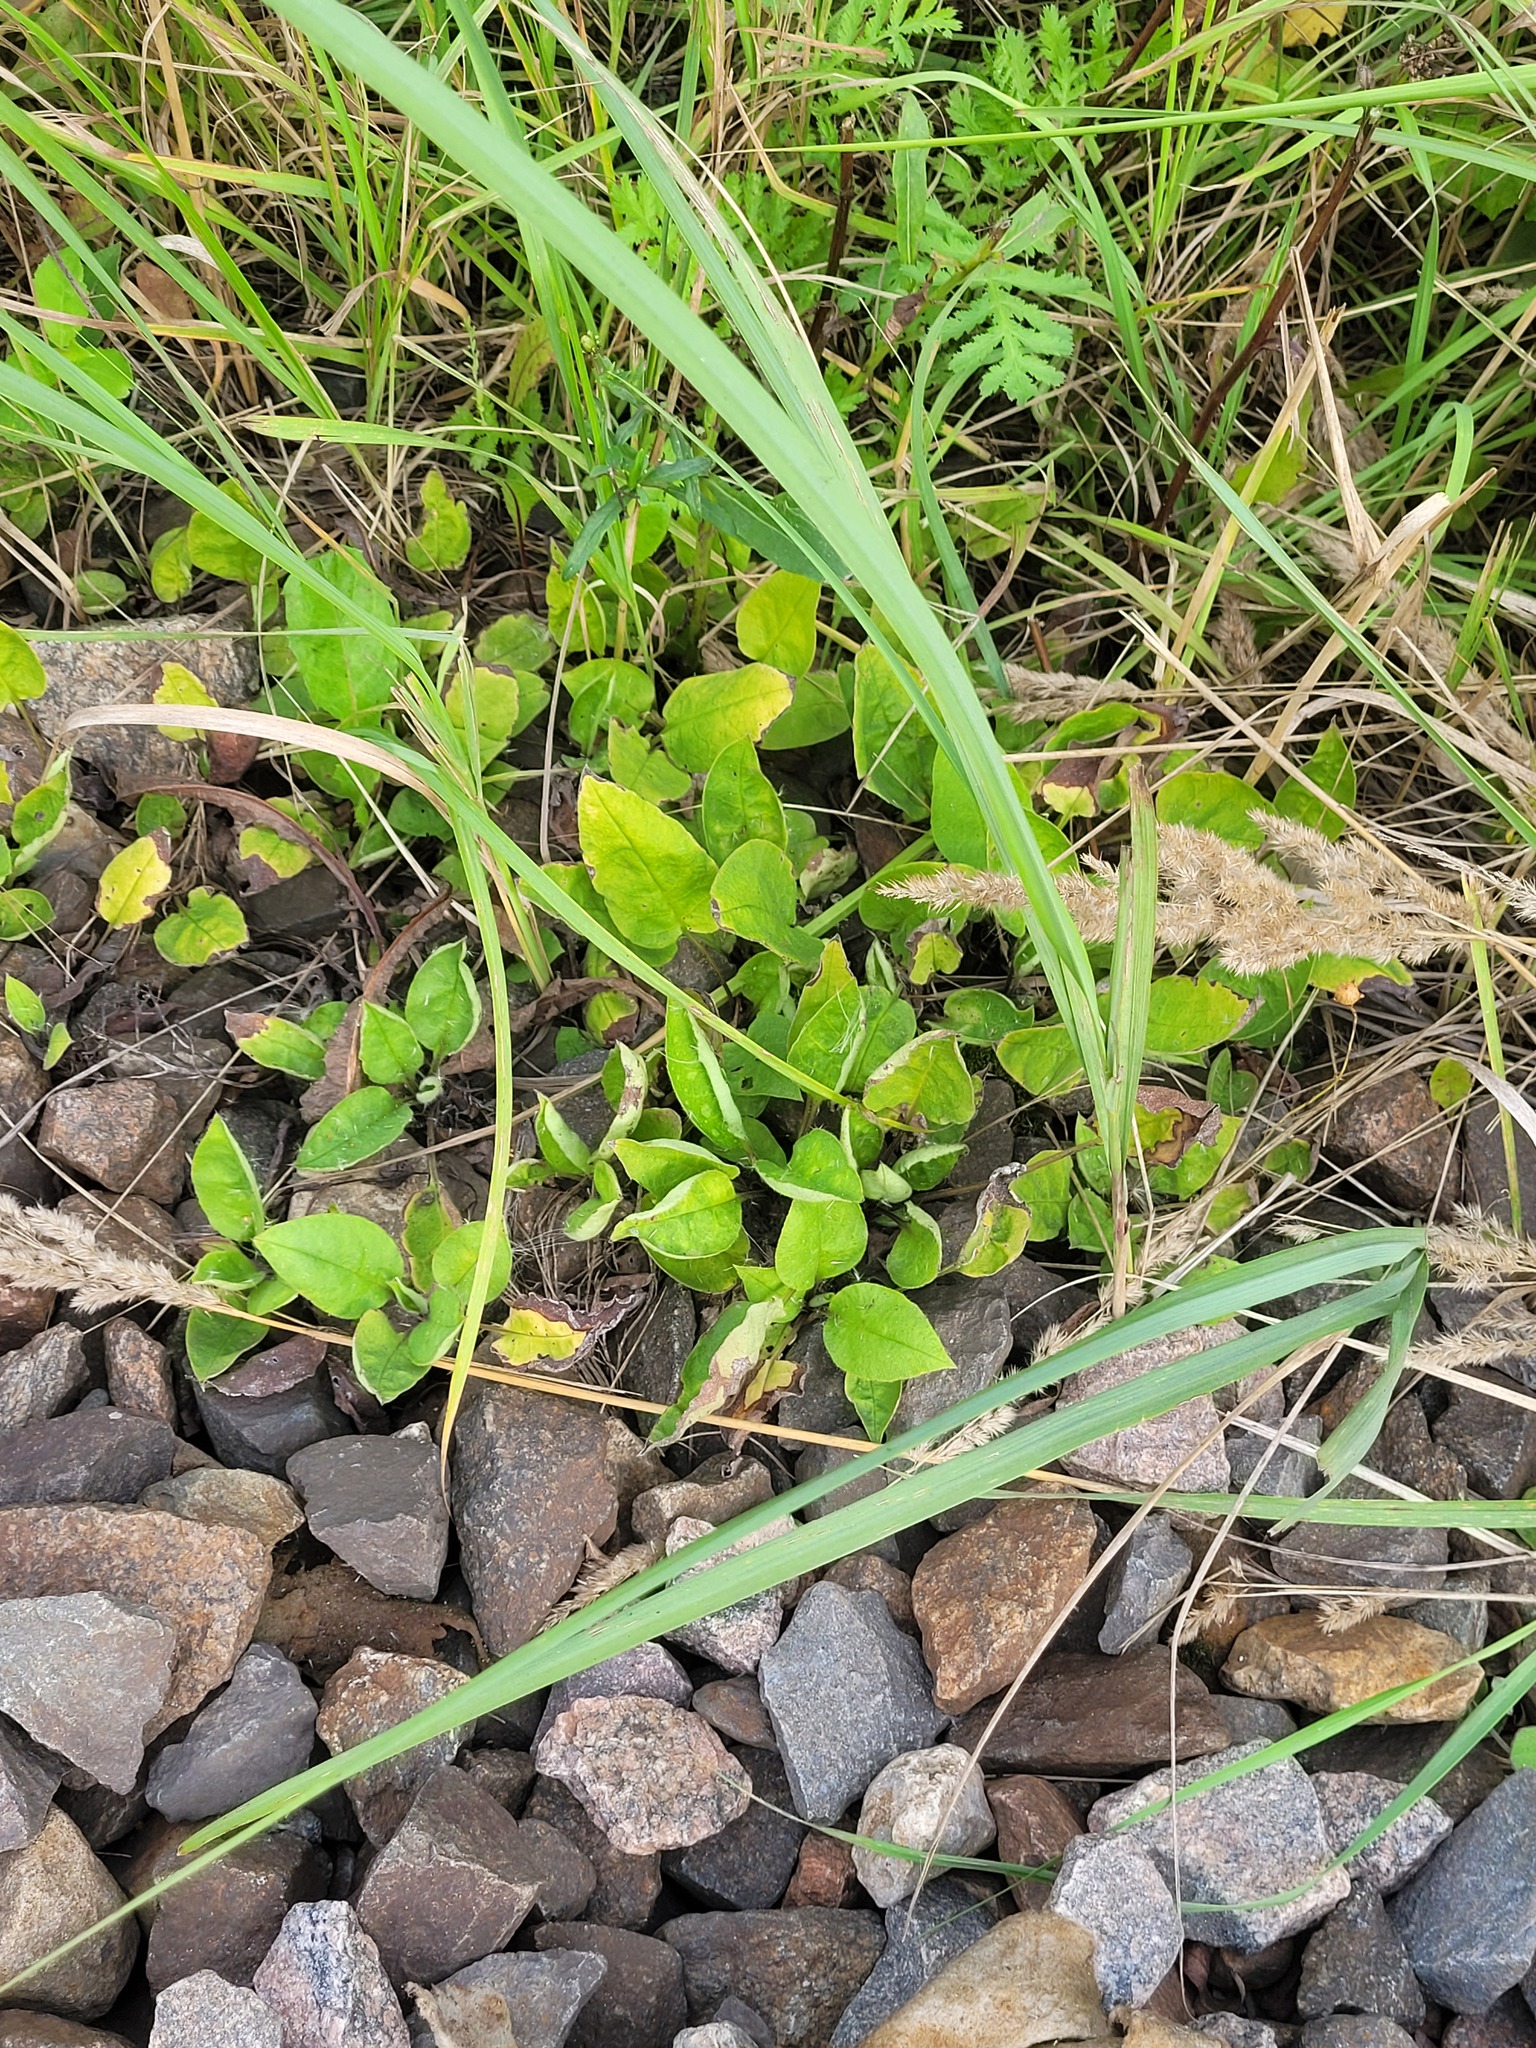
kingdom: Plantae
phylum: Tracheophyta
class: Magnoliopsida
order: Boraginales
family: Boraginaceae
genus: Pulmonaria
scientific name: Pulmonaria obscura
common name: Suffolk lungwort
